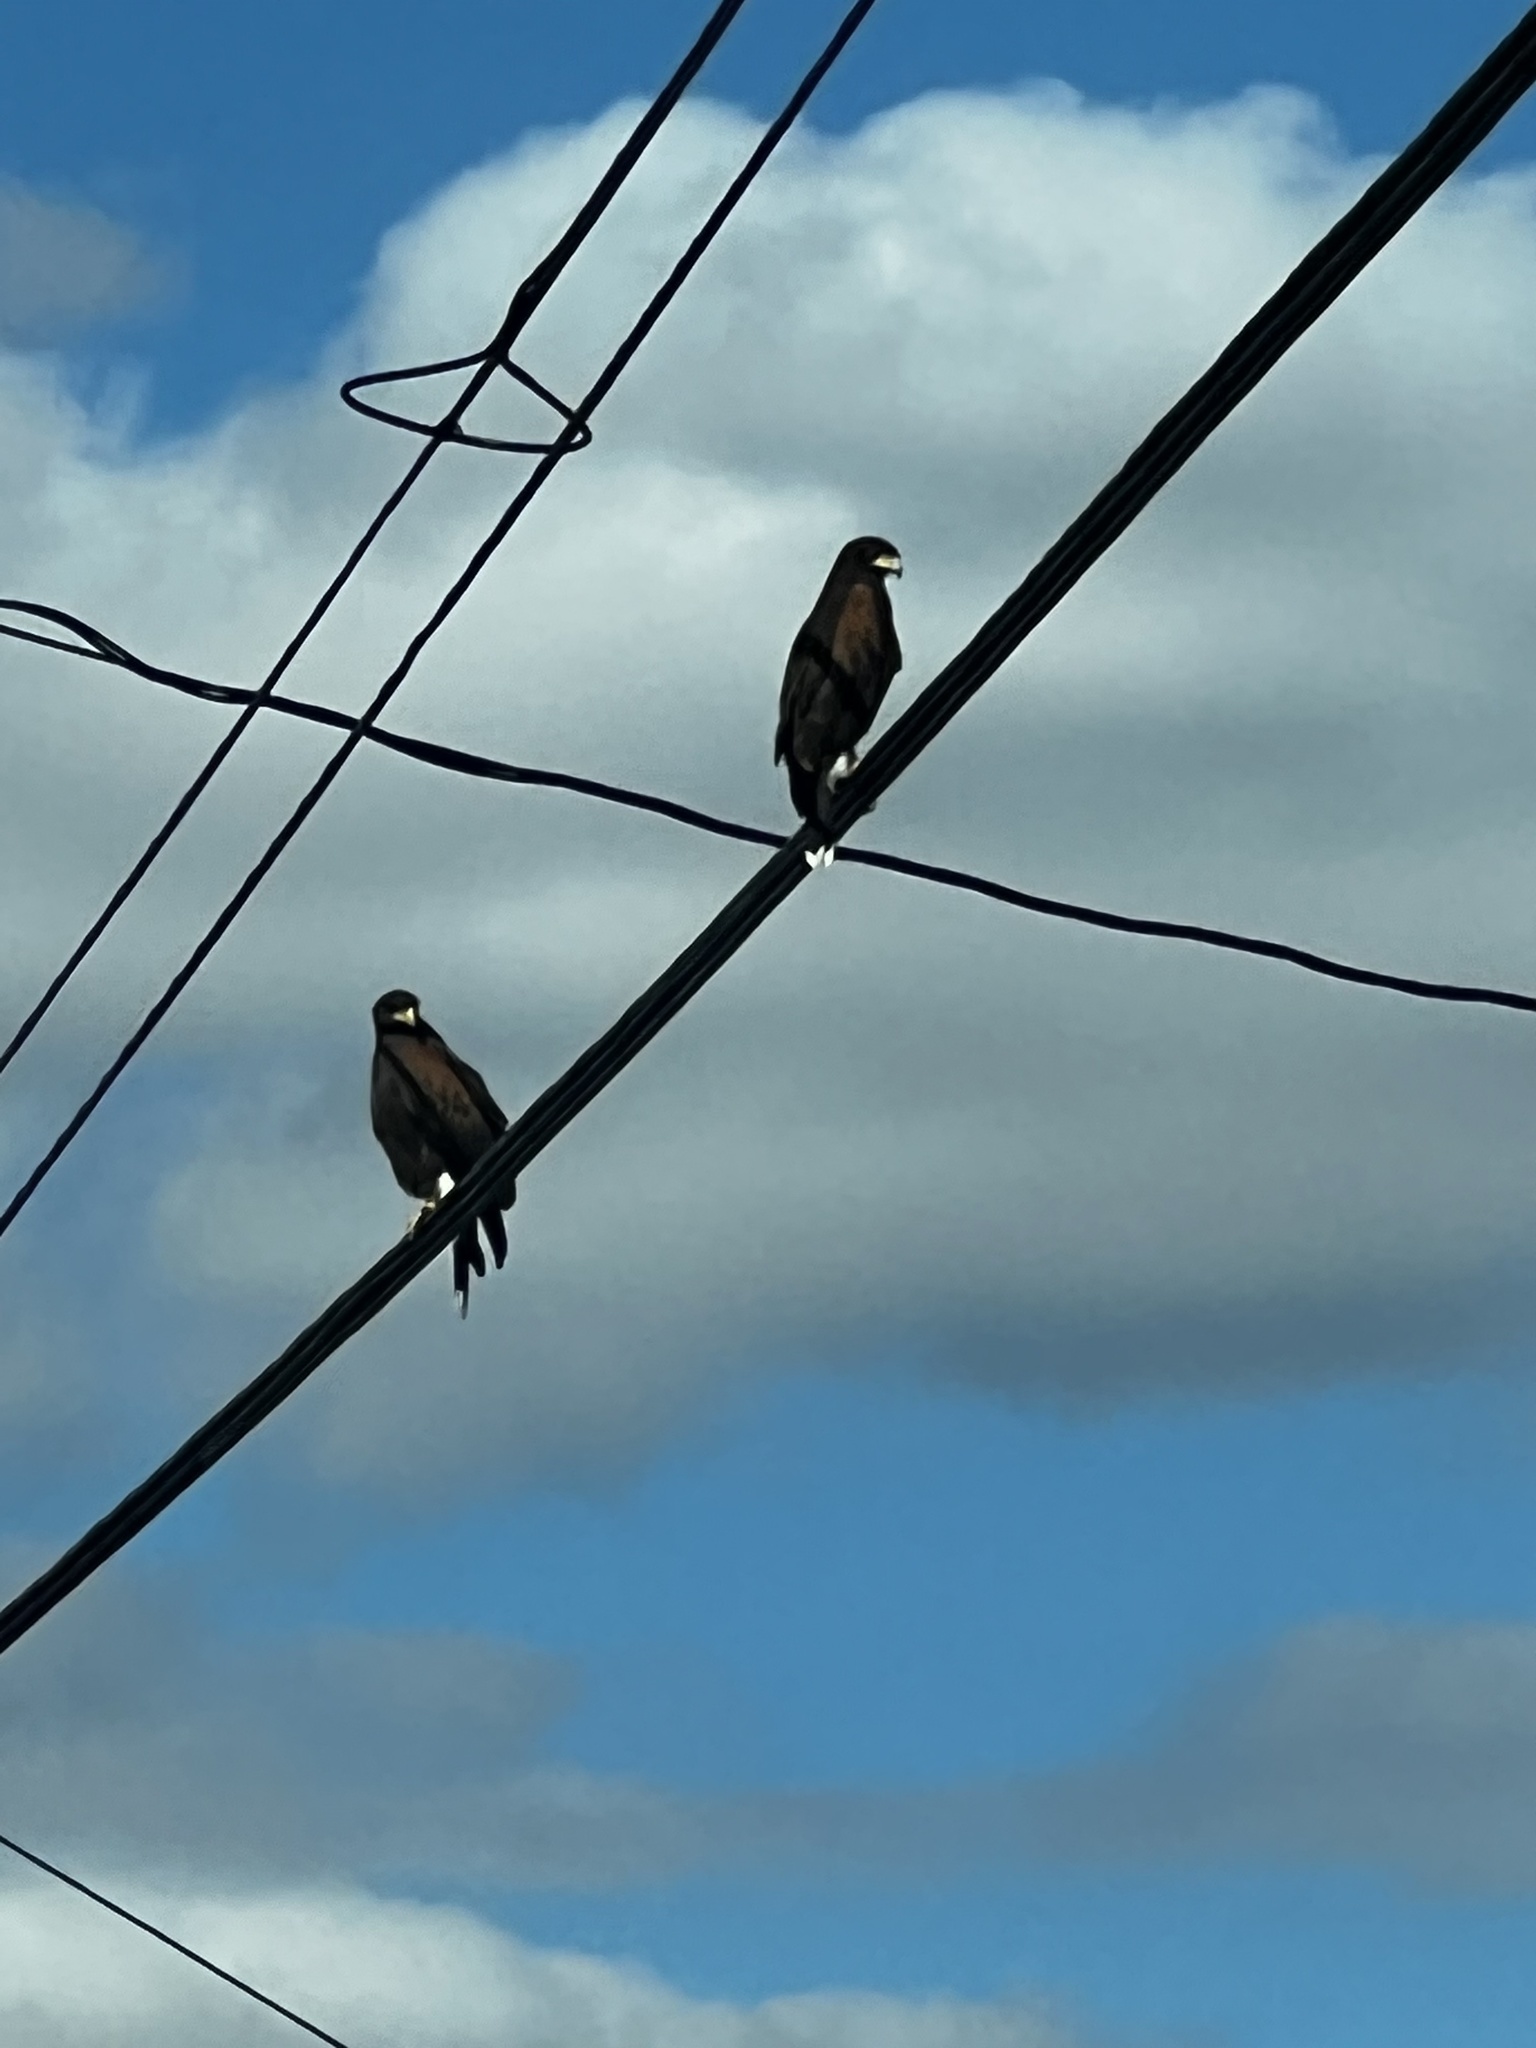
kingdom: Animalia
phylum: Chordata
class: Aves
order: Accipitriformes
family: Accipitridae
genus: Parabuteo
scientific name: Parabuteo unicinctus
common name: Harris's hawk
